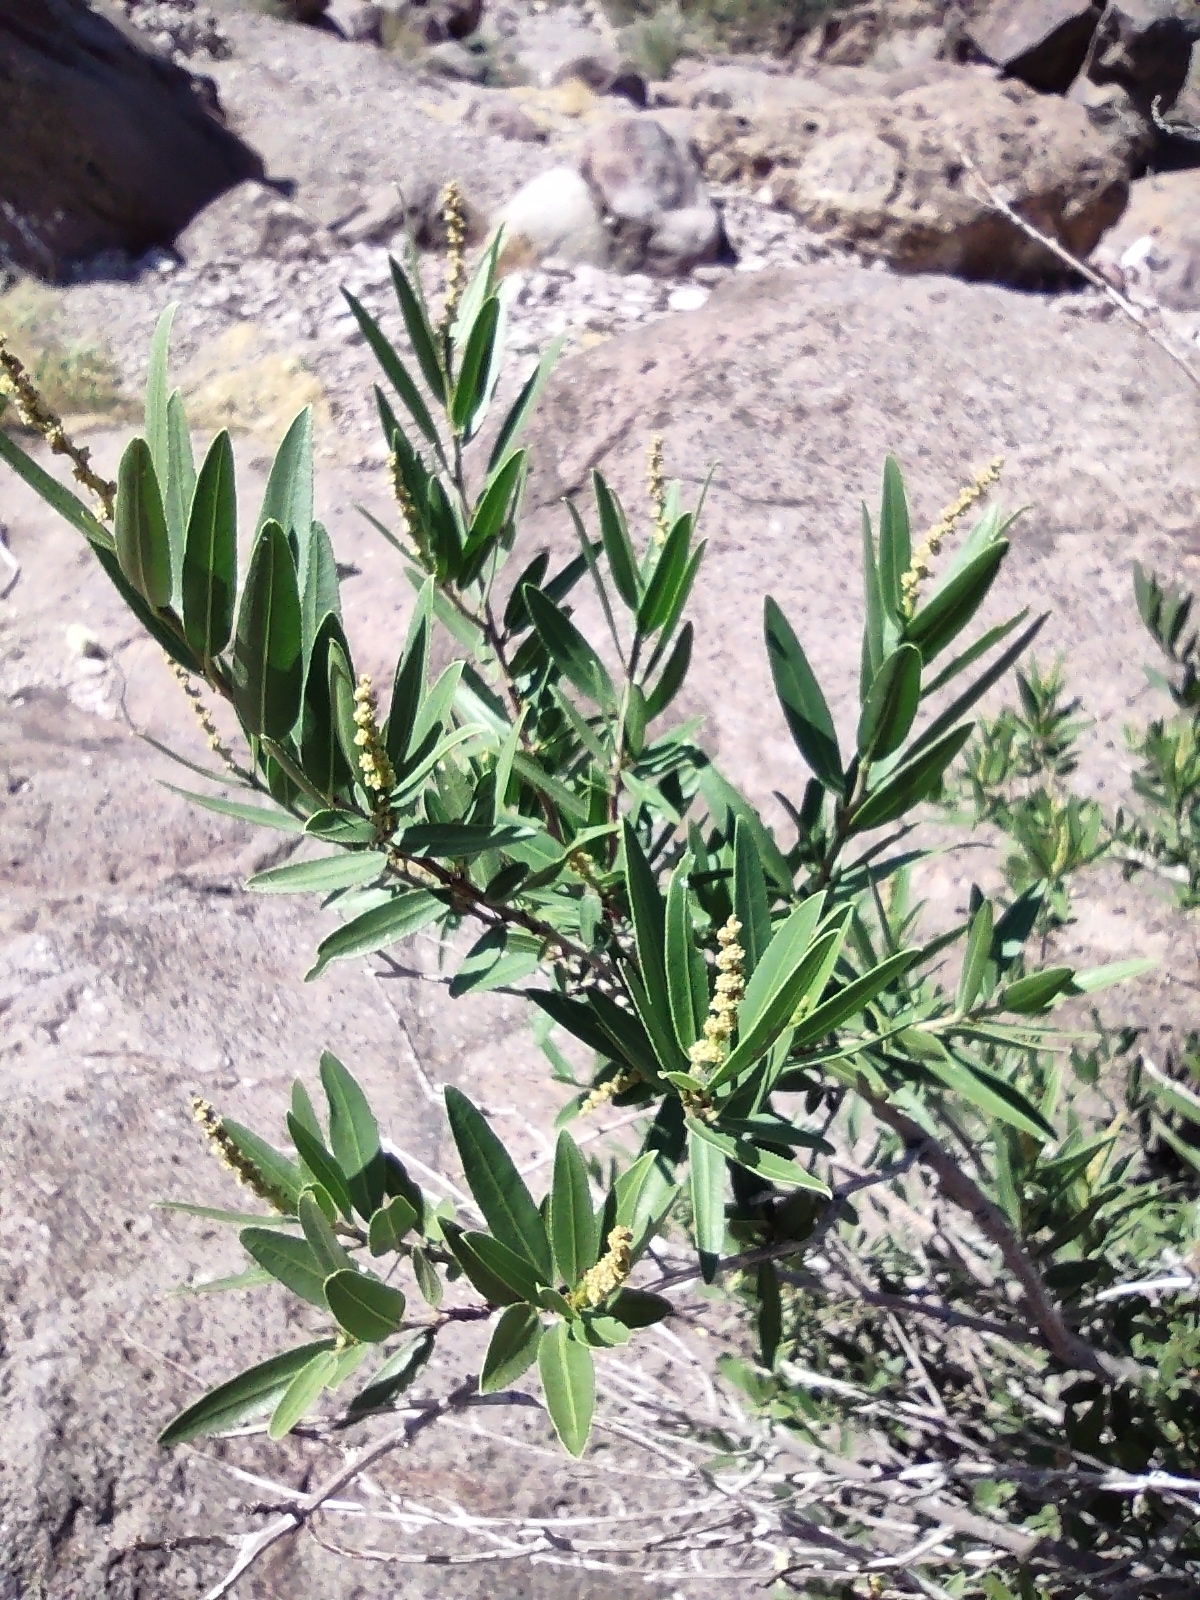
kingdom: Plantae
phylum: Tracheophyta
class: Magnoliopsida
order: Malpighiales
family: Euphorbiaceae
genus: Pleradenophora
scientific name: Pleradenophora bilocularis
